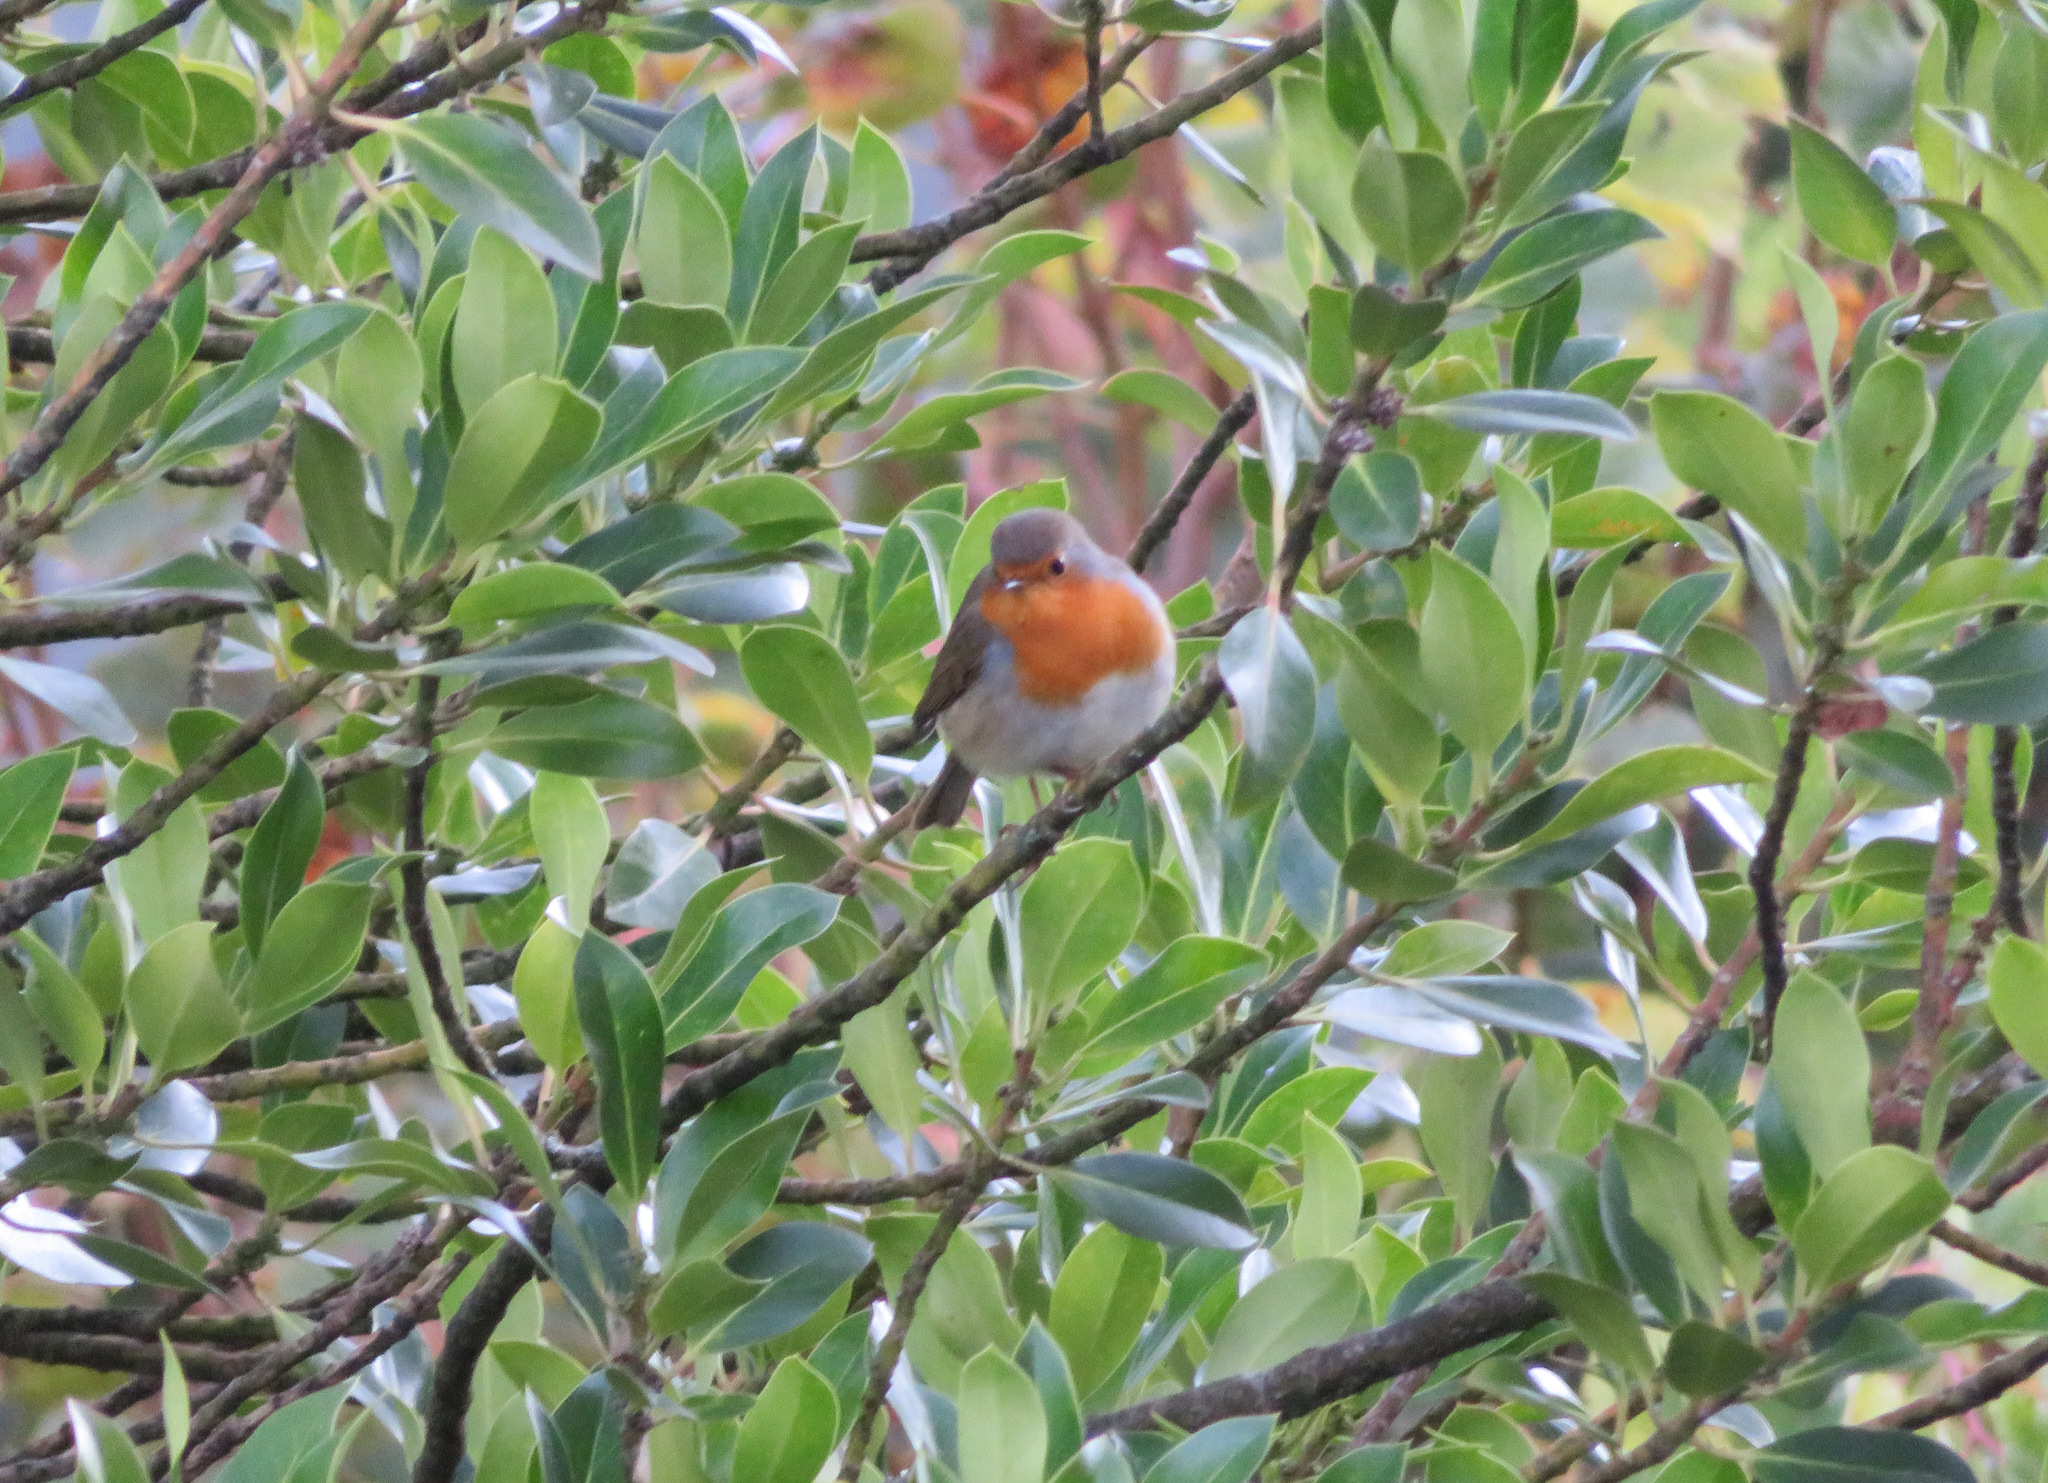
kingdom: Animalia
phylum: Chordata
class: Aves
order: Passeriformes
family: Muscicapidae
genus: Erithacus
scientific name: Erithacus rubecula
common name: European robin
